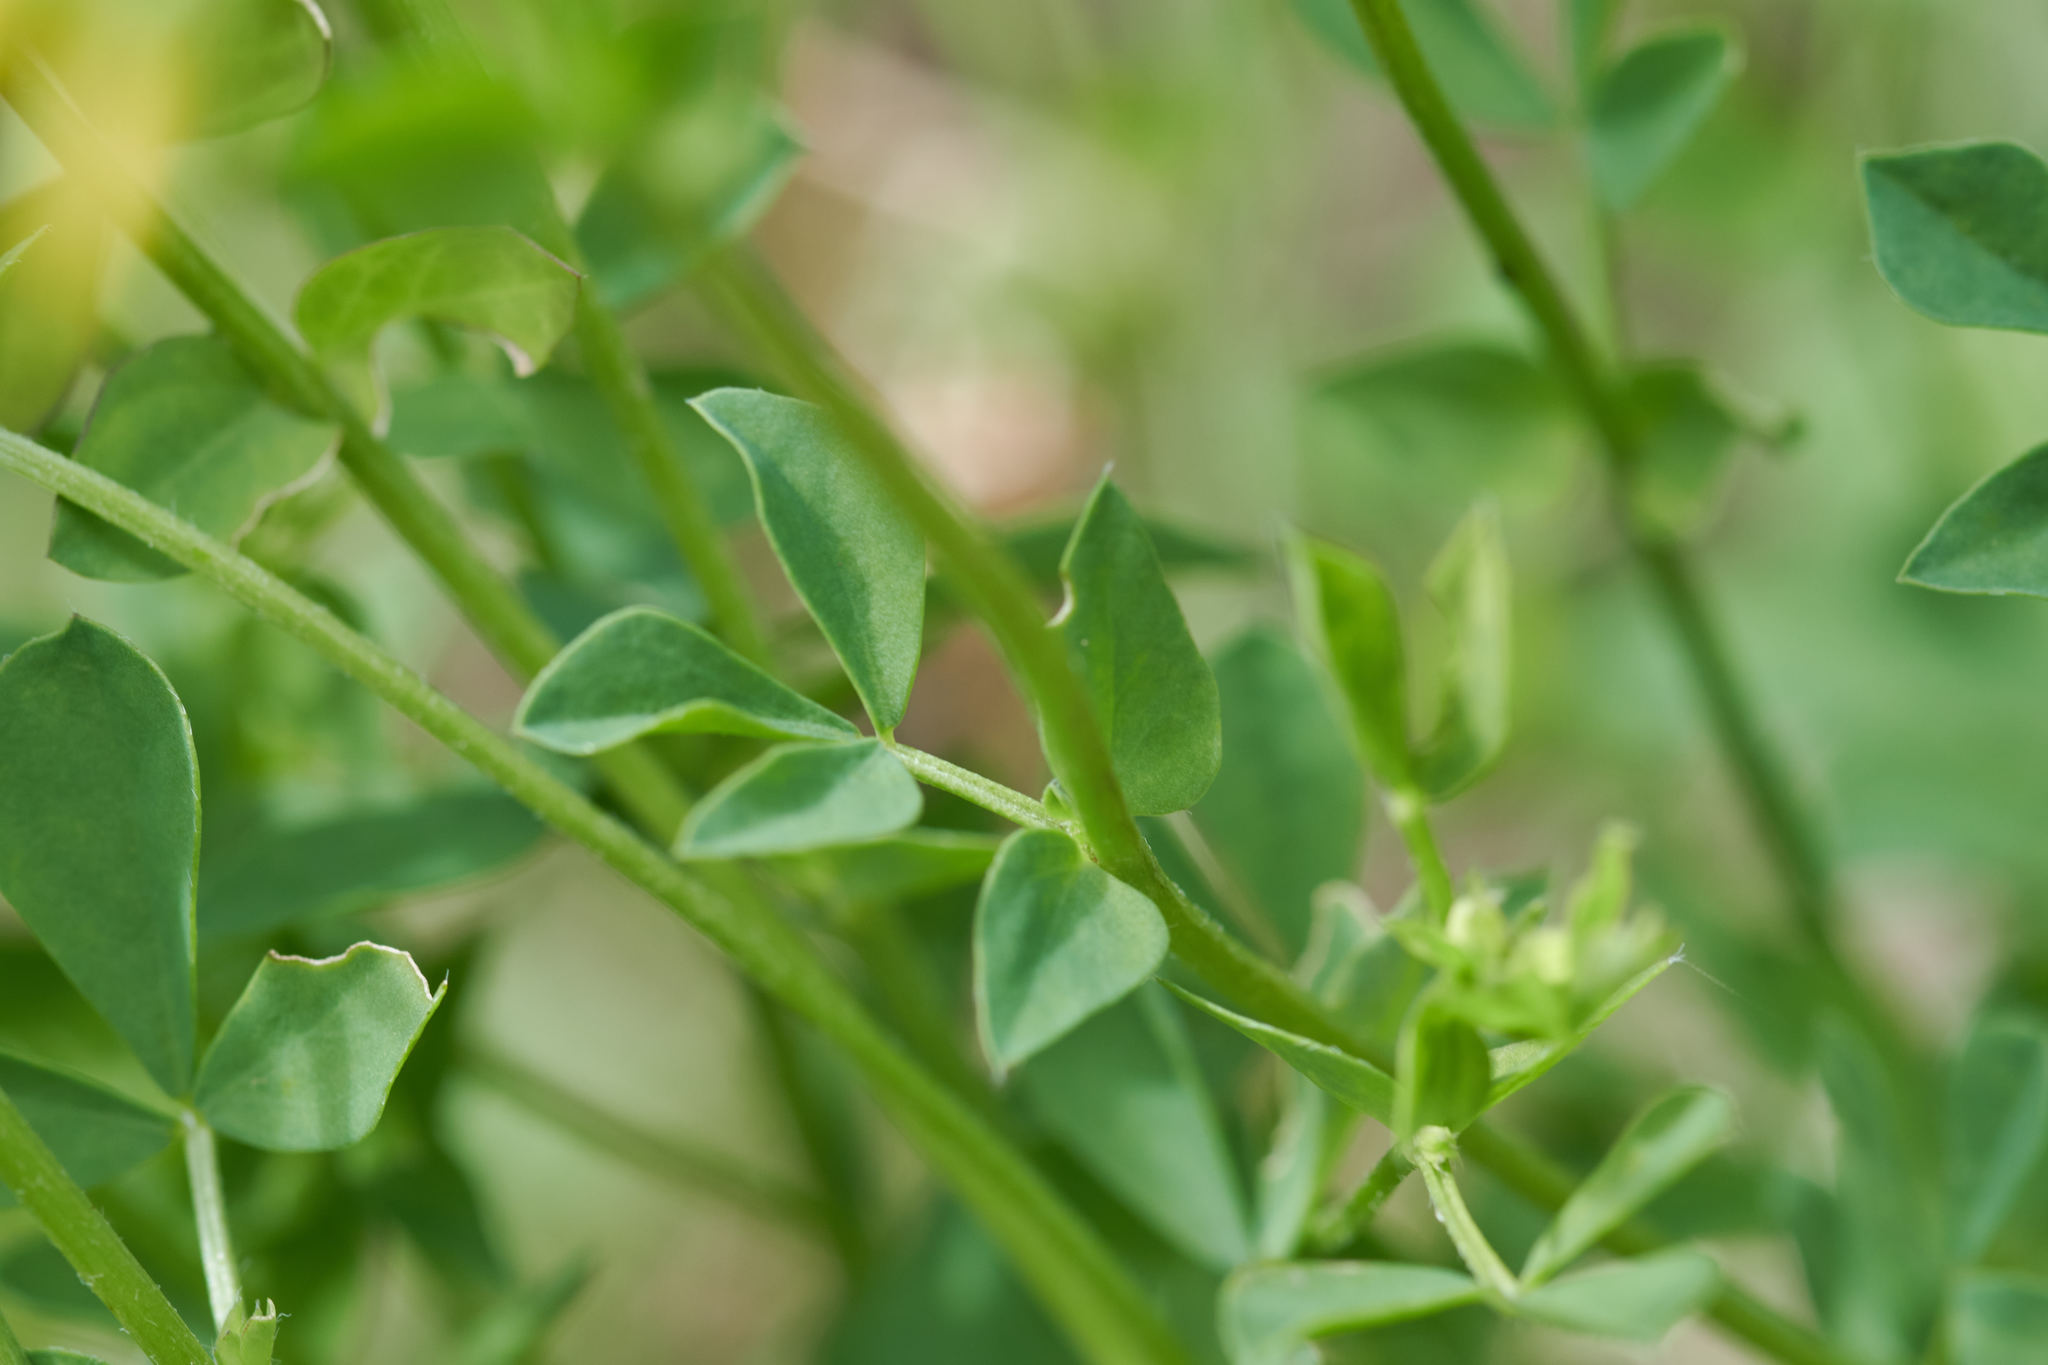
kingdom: Plantae
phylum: Tracheophyta
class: Magnoliopsida
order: Fabales
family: Fabaceae
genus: Lotus
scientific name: Lotus corniculatus
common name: Common bird's-foot-trefoil
